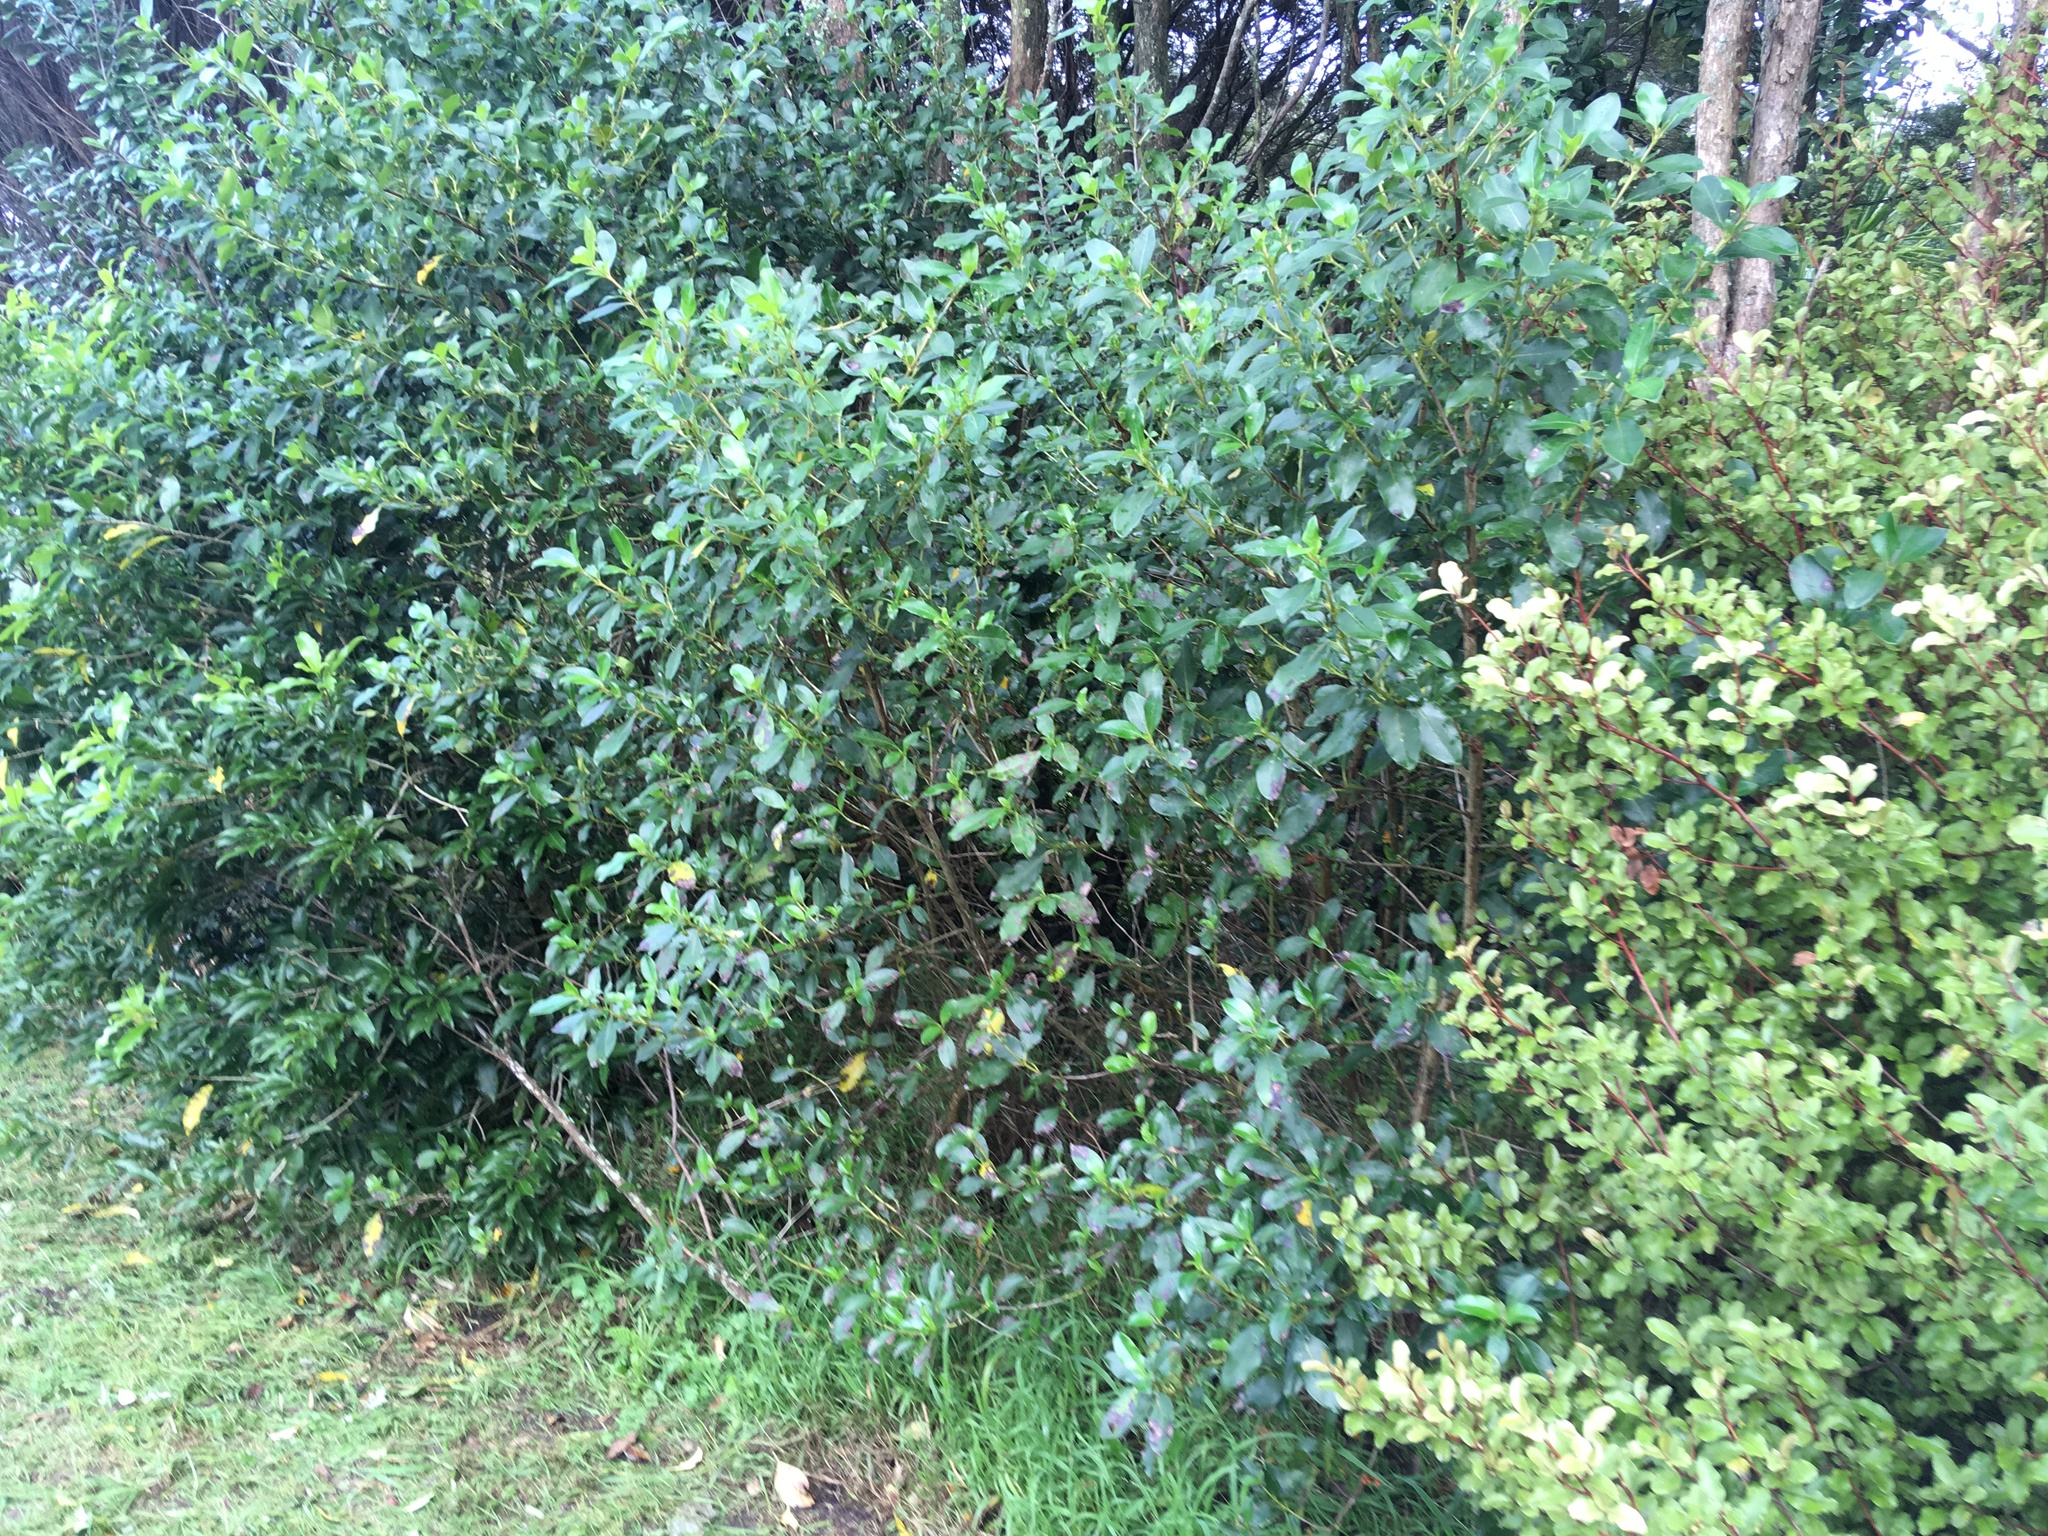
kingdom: Plantae
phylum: Tracheophyta
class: Magnoliopsida
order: Gentianales
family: Rubiaceae
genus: Coprosma
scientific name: Coprosma robusta
